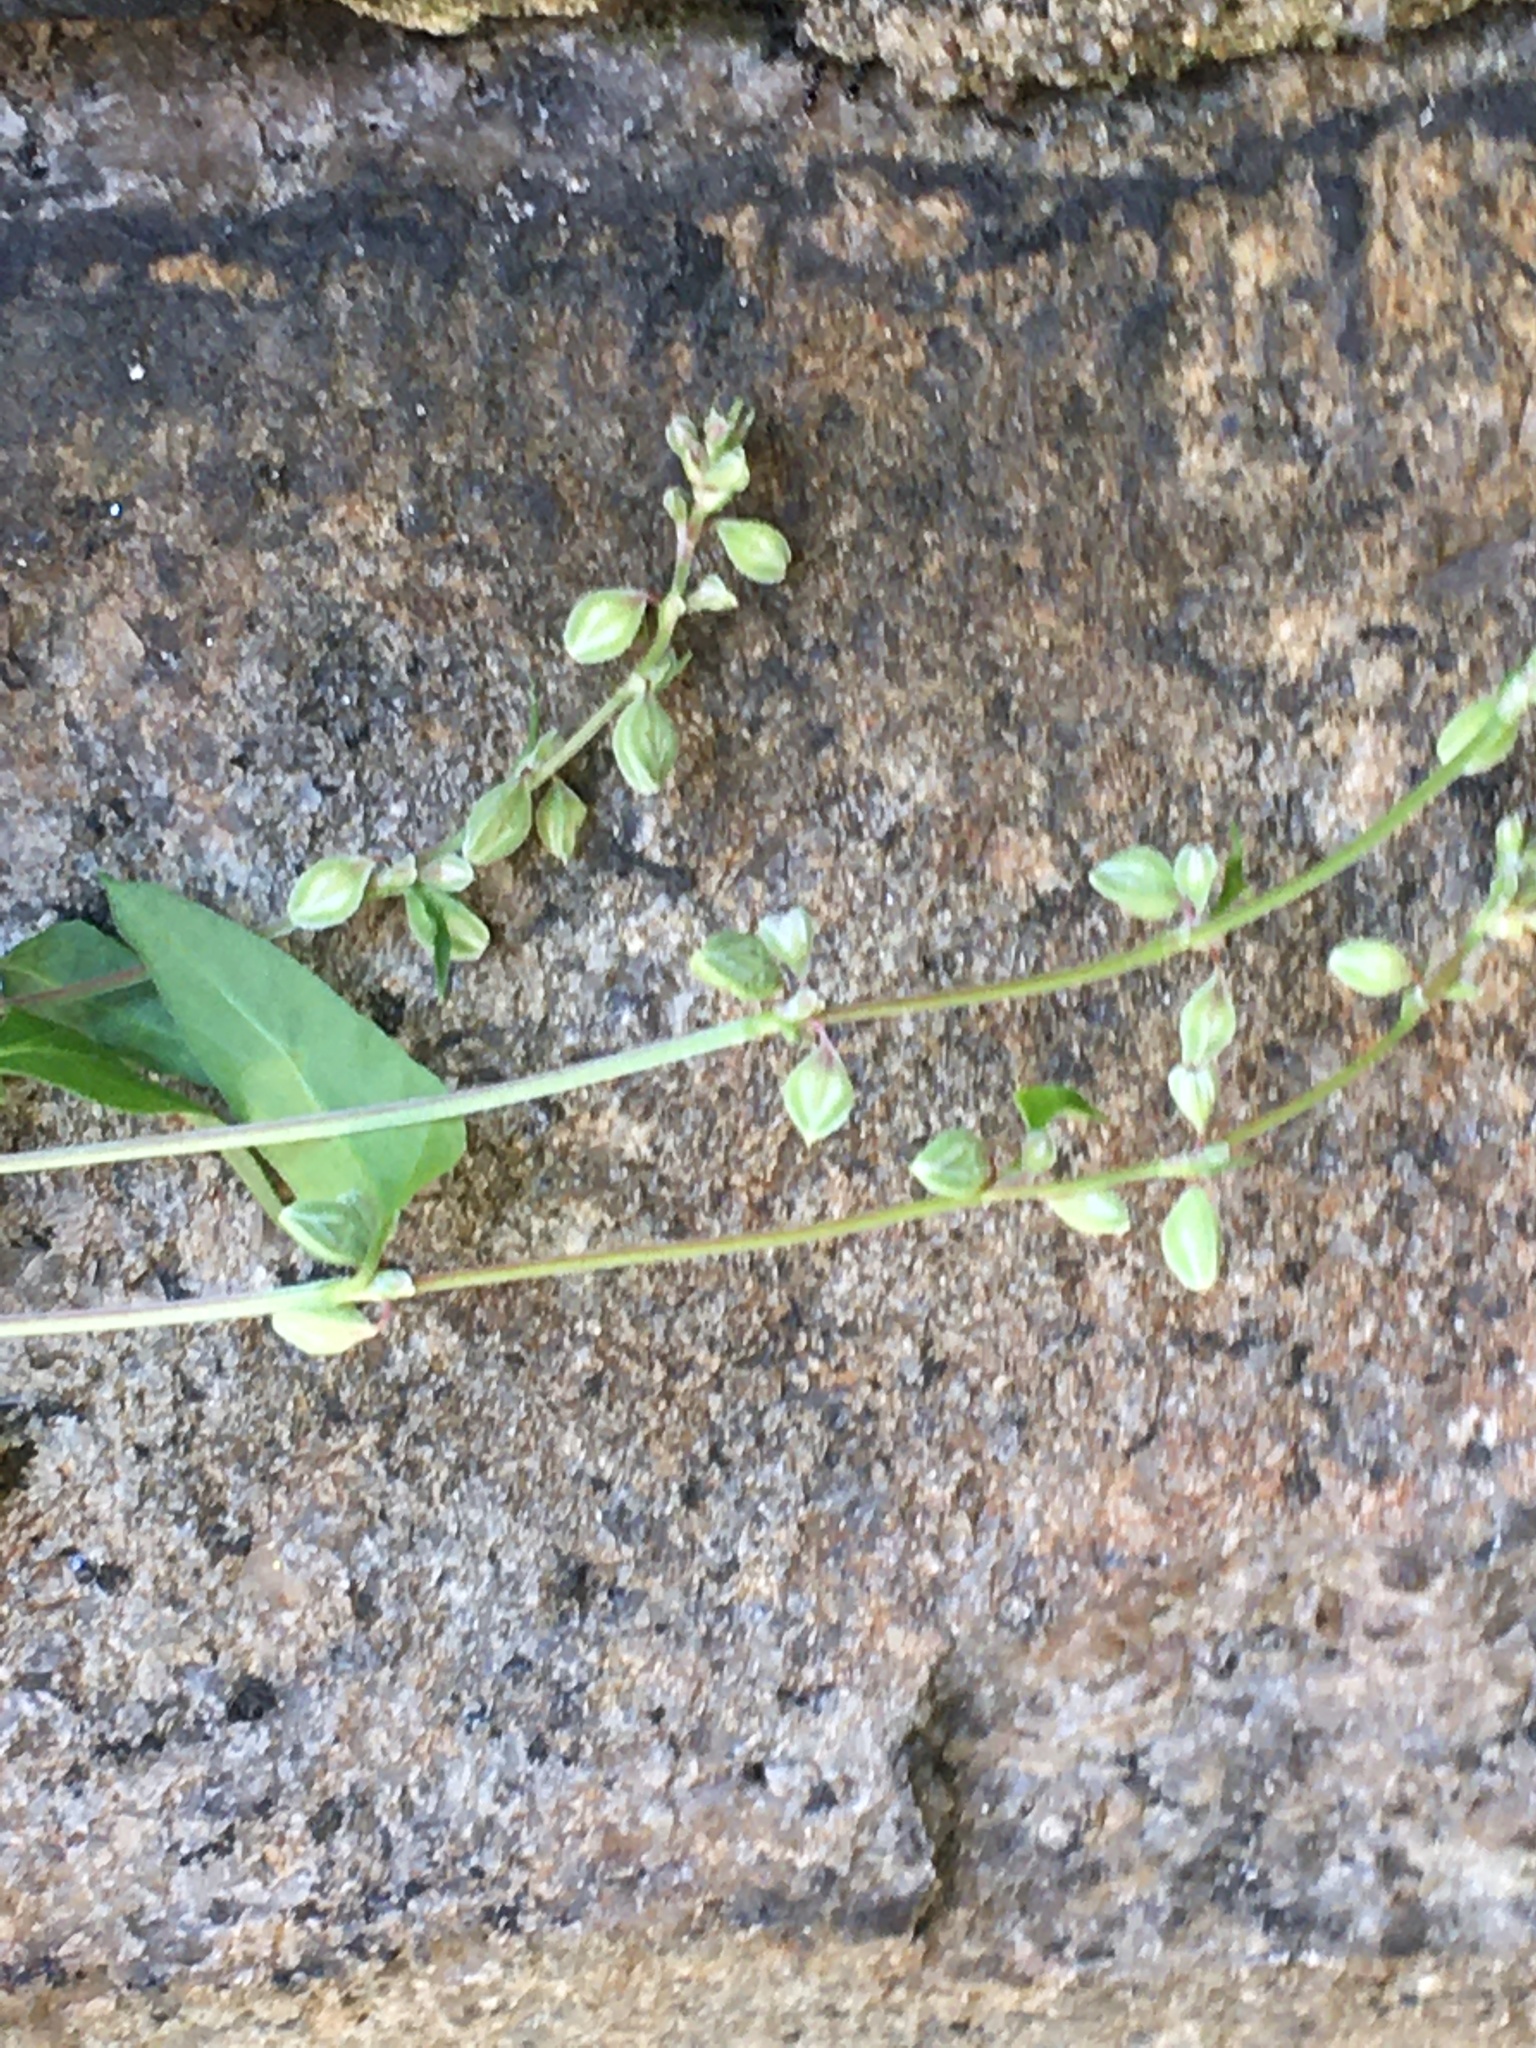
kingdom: Plantae
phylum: Tracheophyta
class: Magnoliopsida
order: Caryophyllales
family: Polygonaceae
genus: Fallopia
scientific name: Fallopia dumetorum
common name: Copse-bindweed
